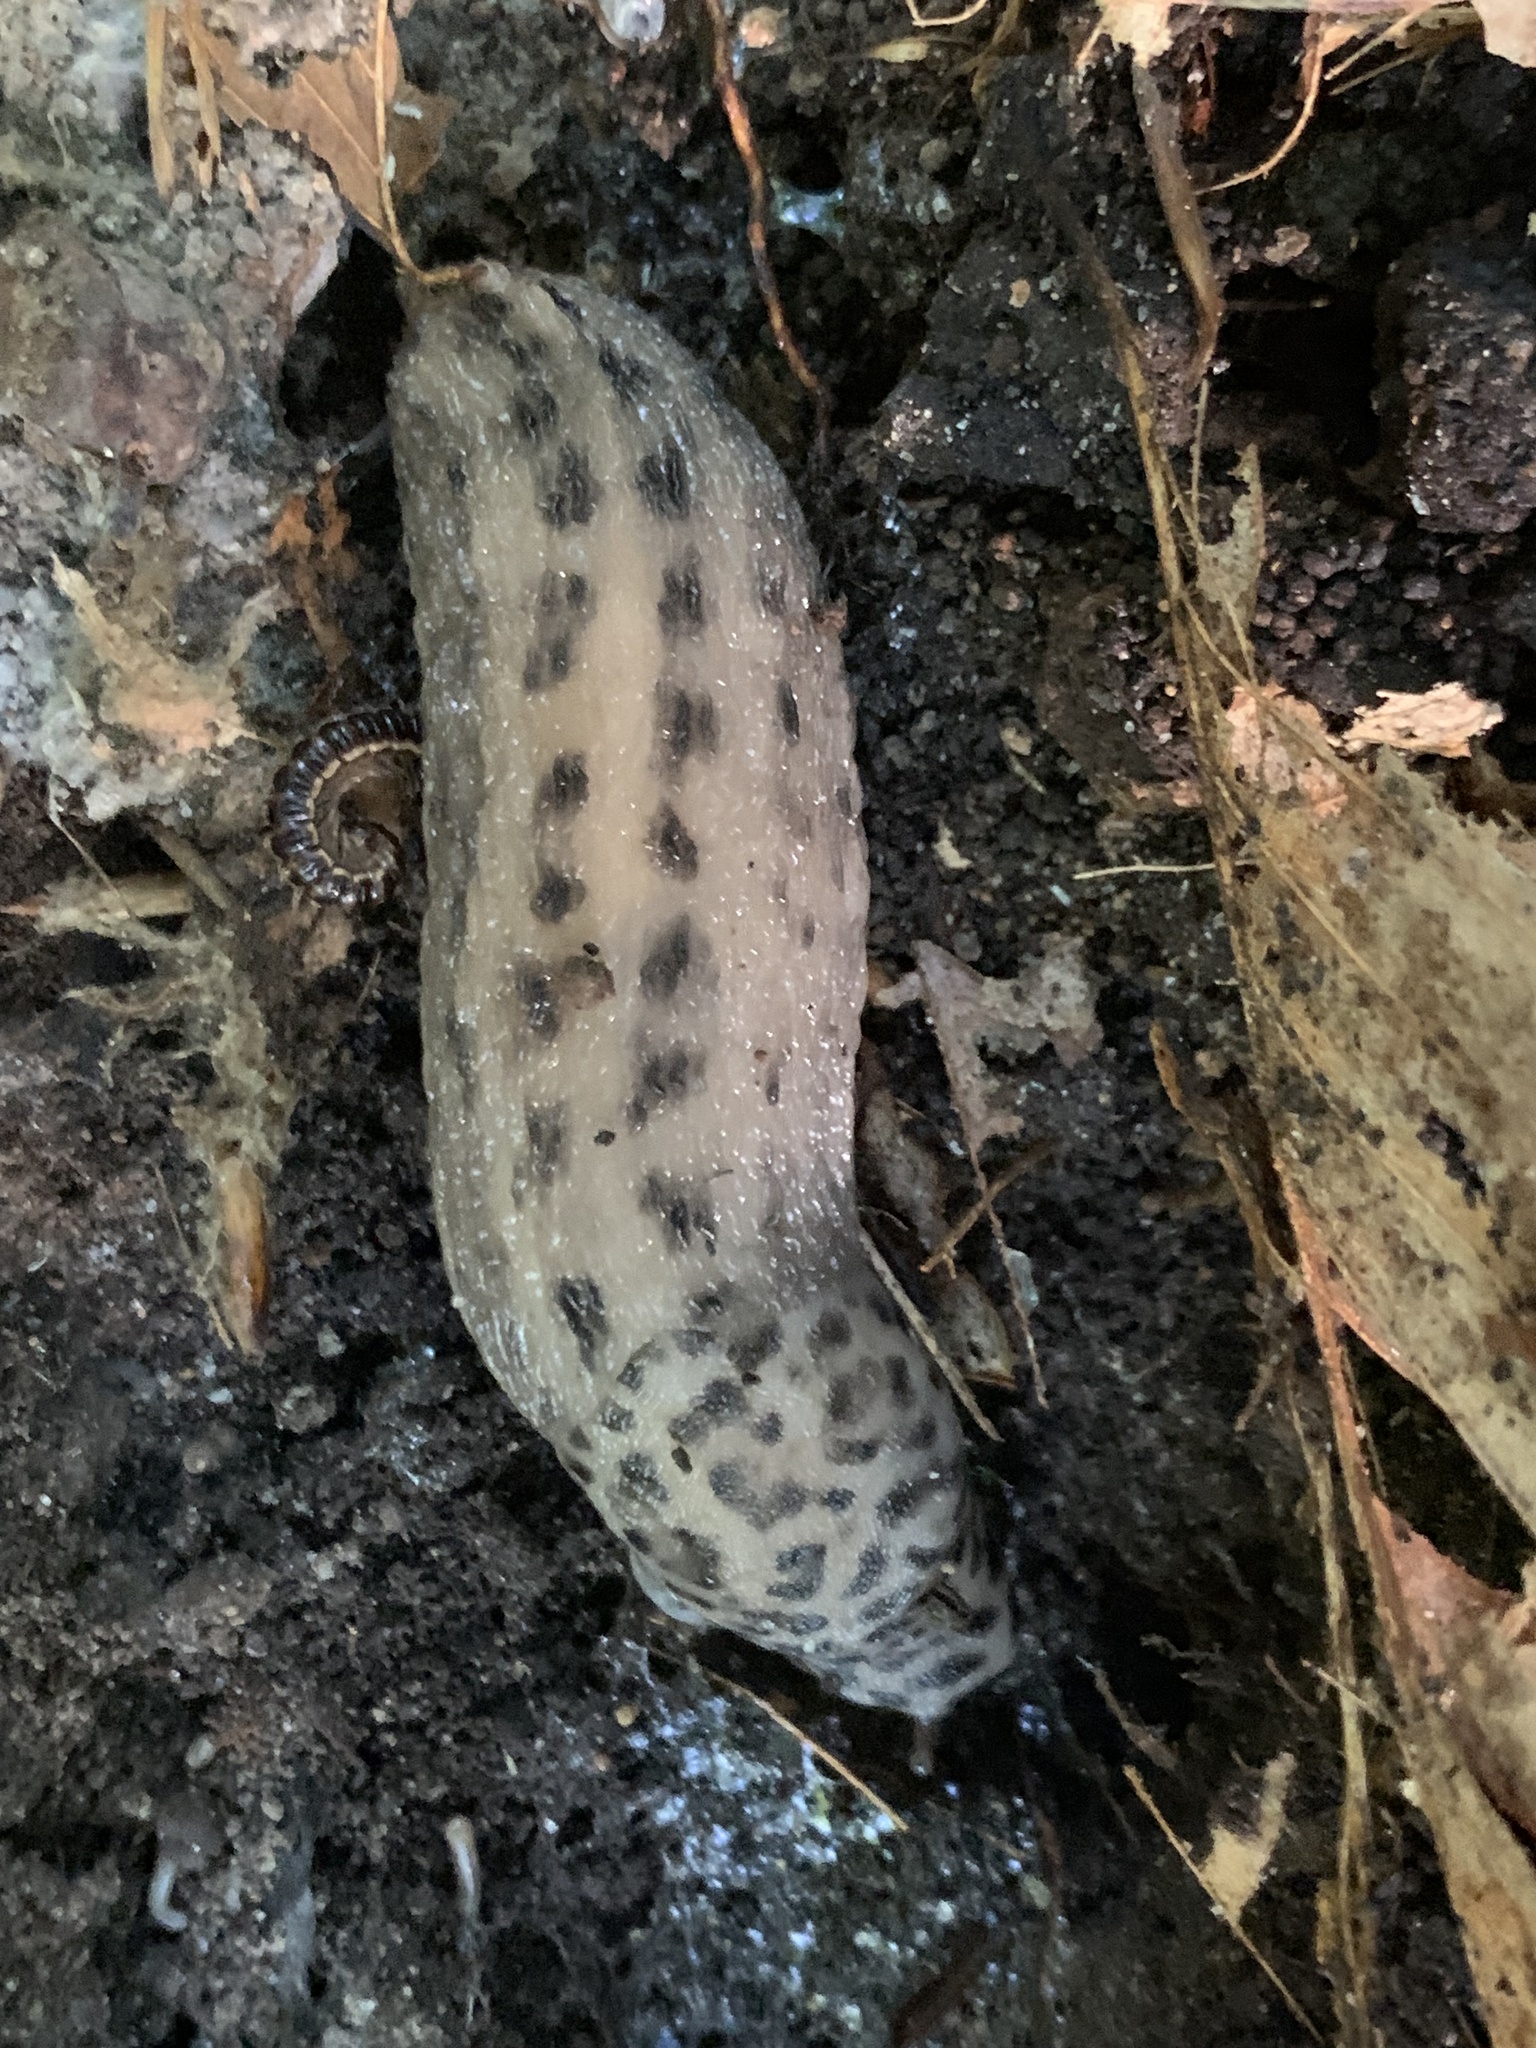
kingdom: Animalia
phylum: Mollusca
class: Gastropoda
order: Stylommatophora
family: Limacidae
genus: Limax
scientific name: Limax maximus
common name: Great grey slug
